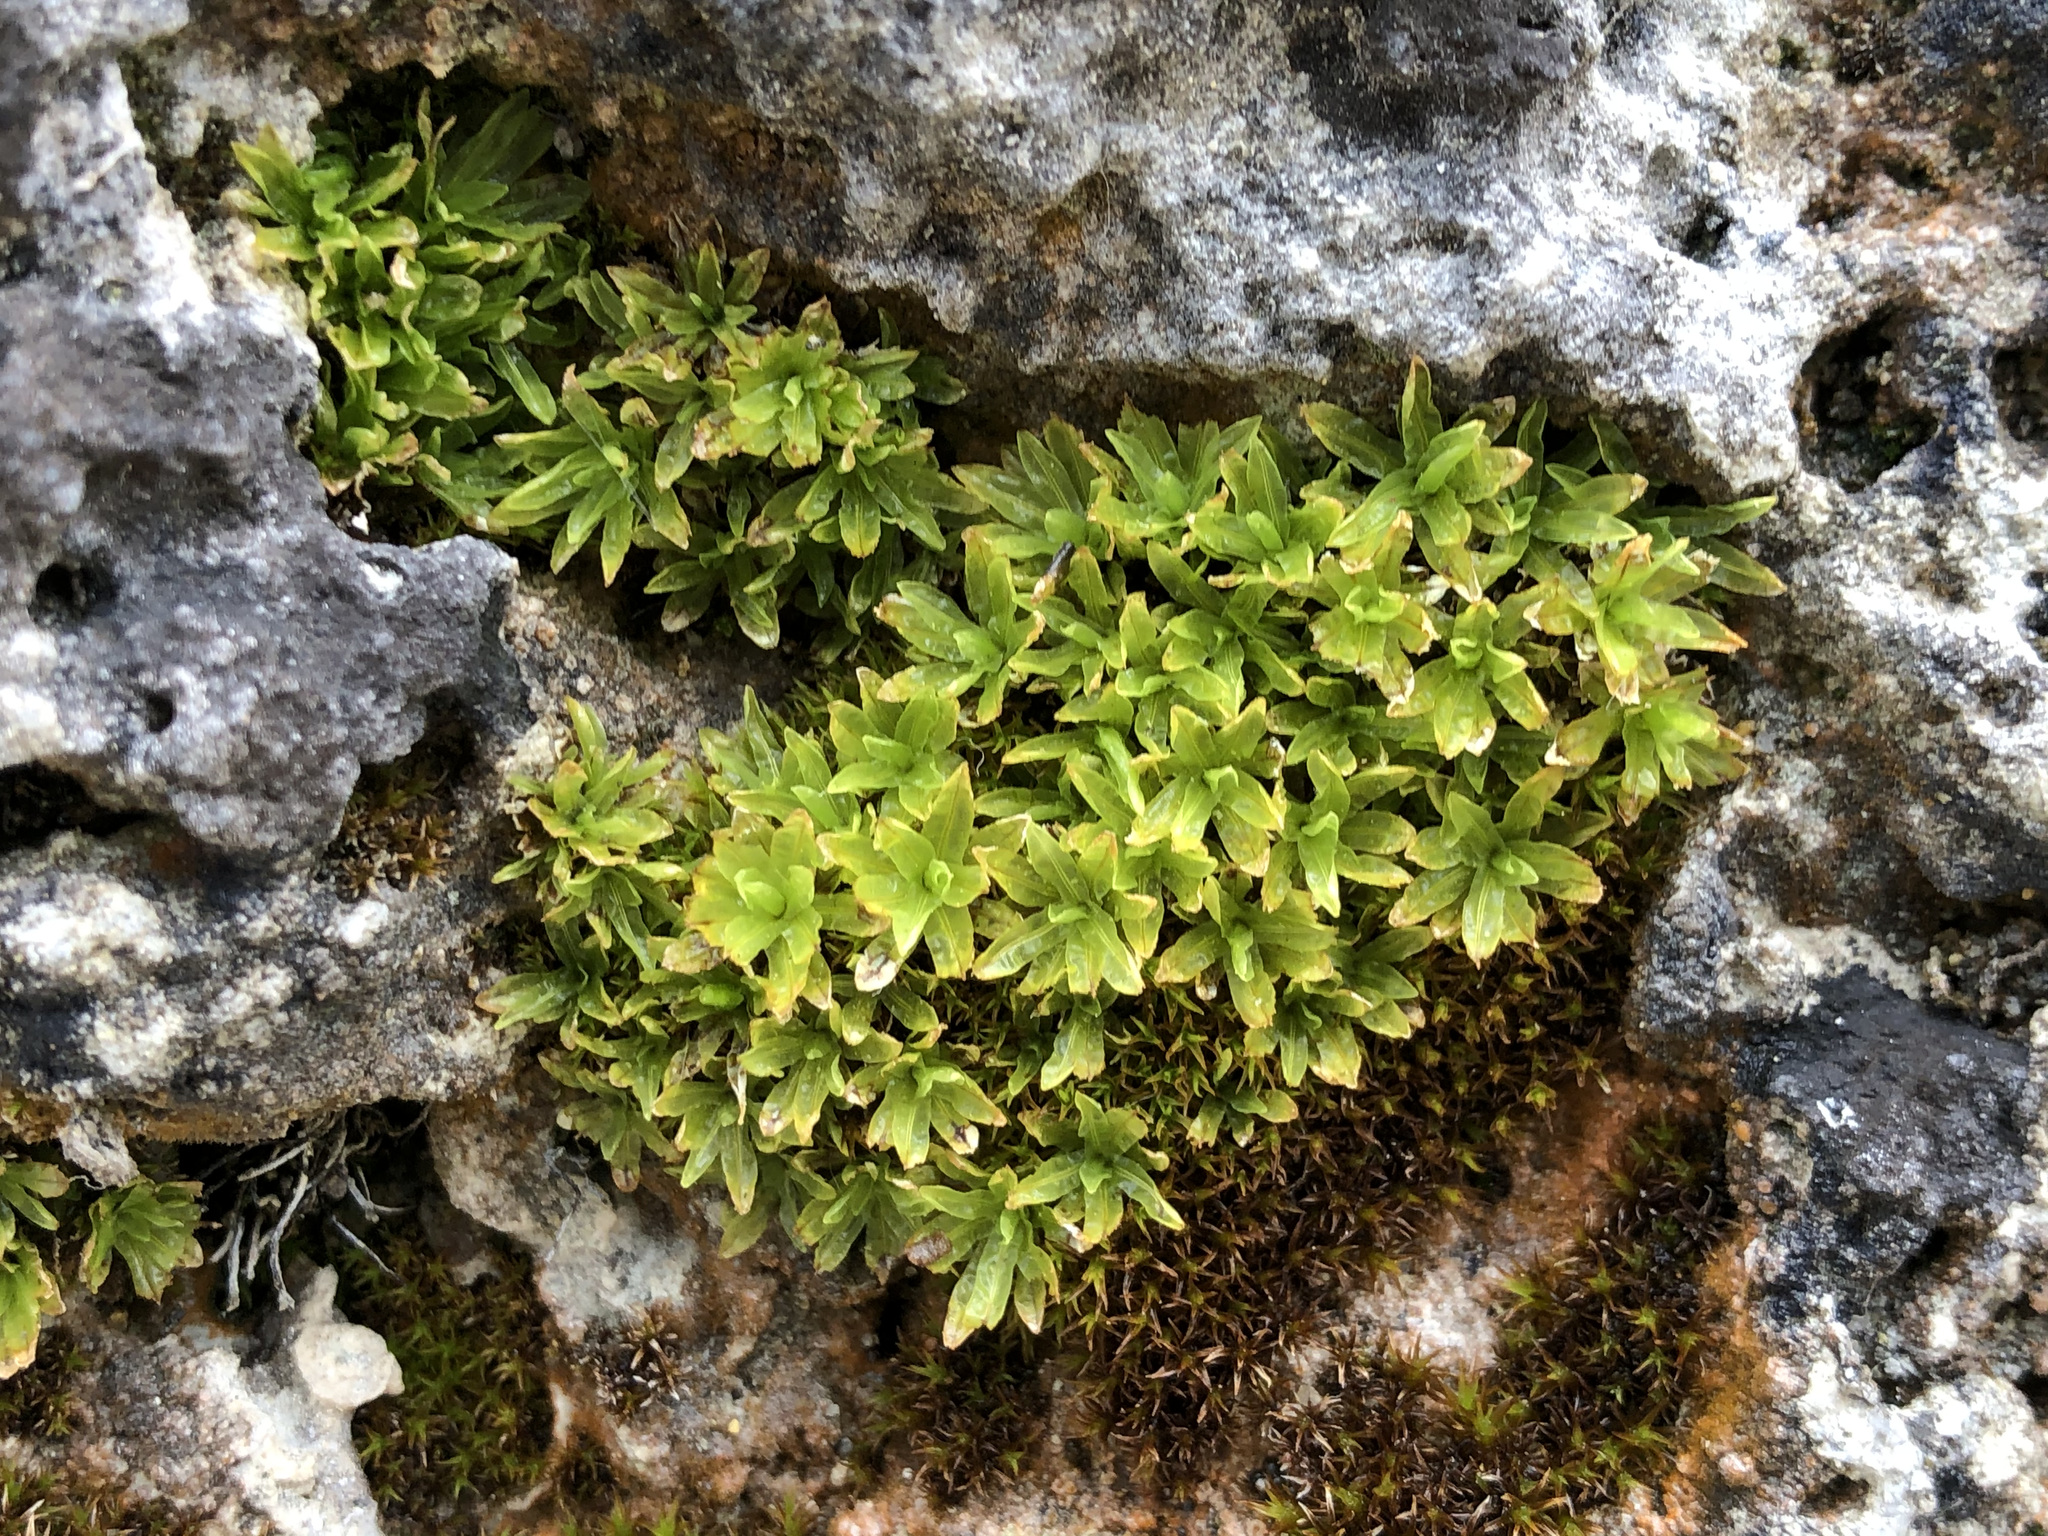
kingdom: Plantae
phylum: Bryophyta
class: Bryopsida
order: Encalyptales
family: Encalyptaceae
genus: Encalypta
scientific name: Encalypta streptocarpa
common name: Spiral extinguisher-moss
